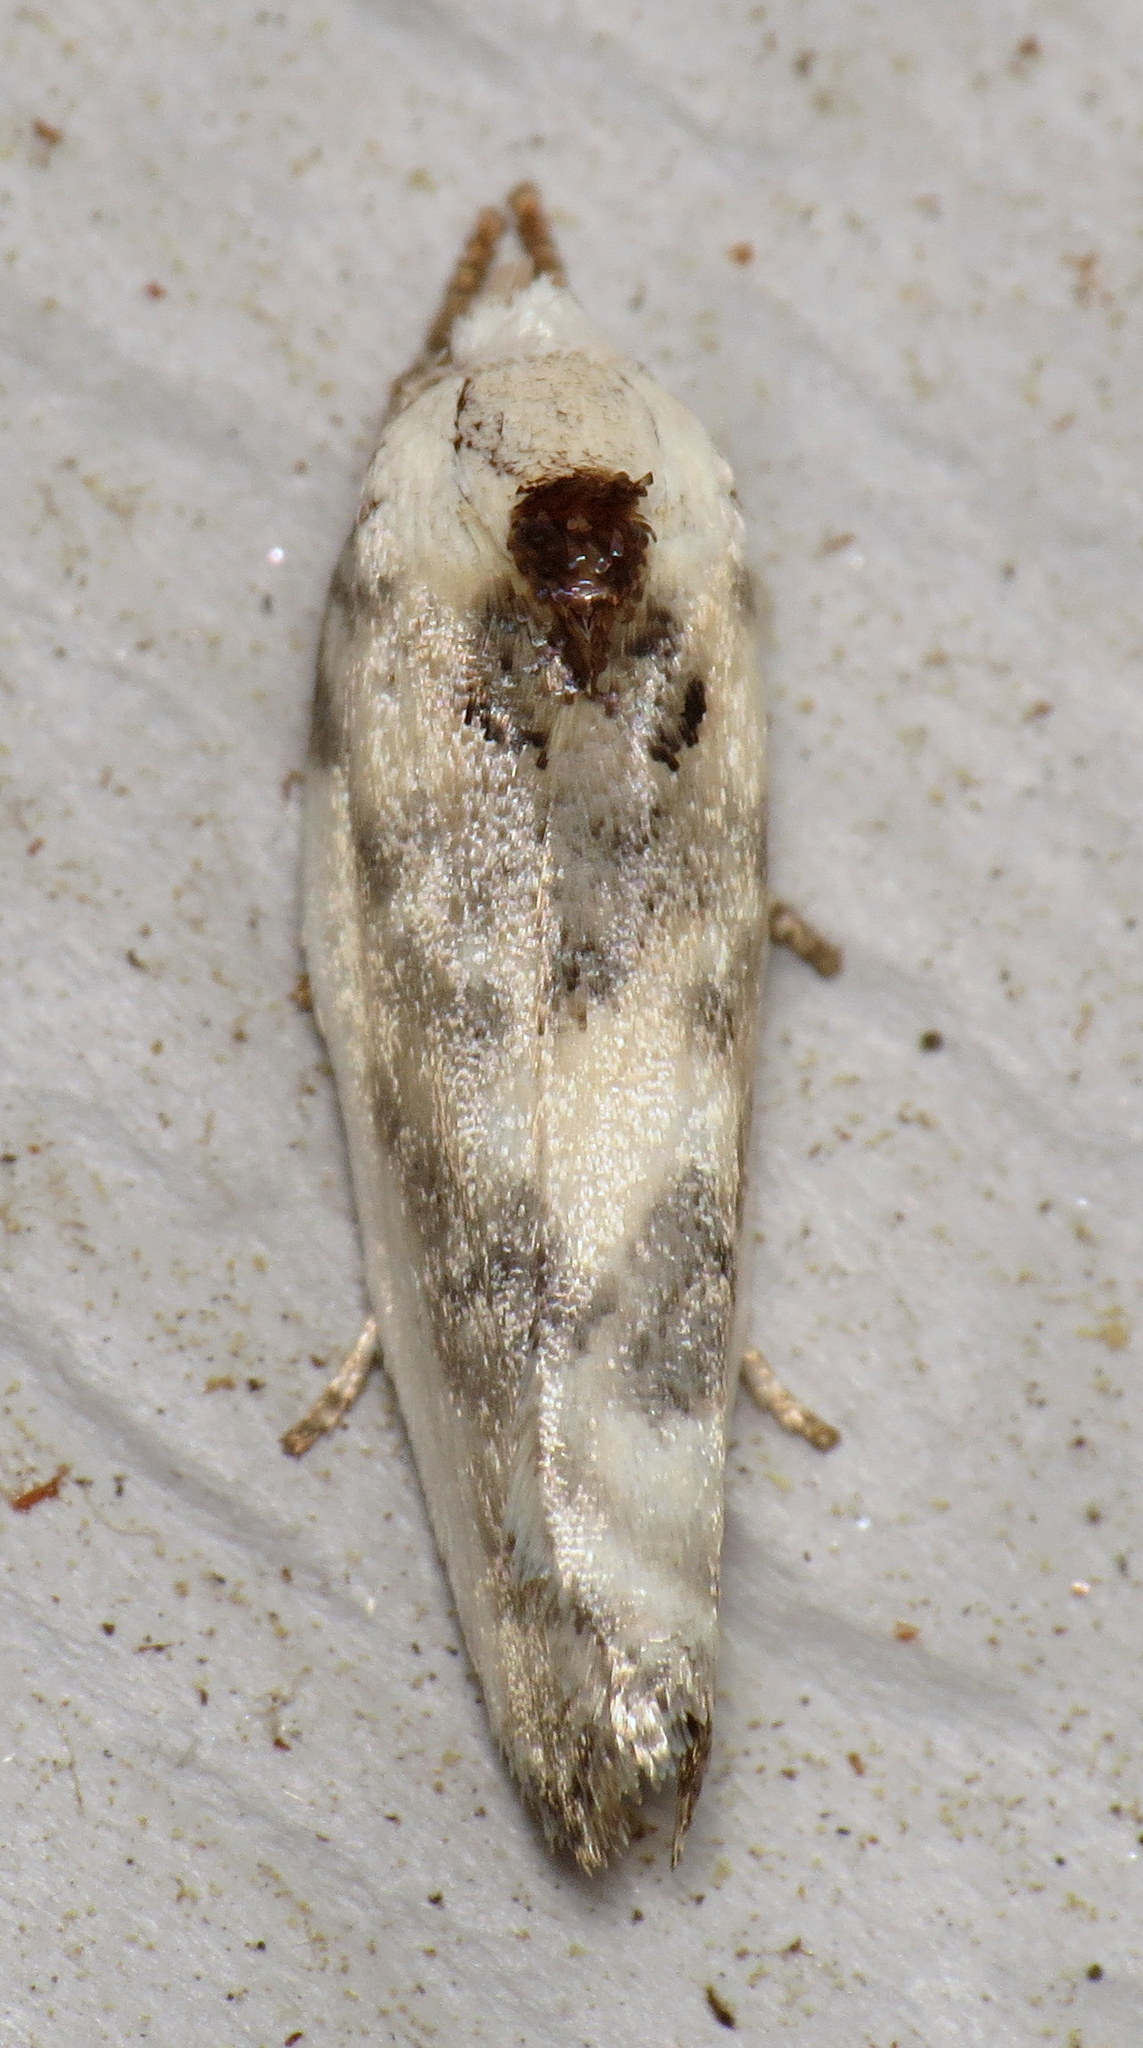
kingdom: Animalia
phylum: Arthropoda
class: Insecta
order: Lepidoptera
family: Depressariidae
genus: Antaeotricha
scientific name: Antaeotricha leucillana
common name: Pale gray bird-dropping moth
